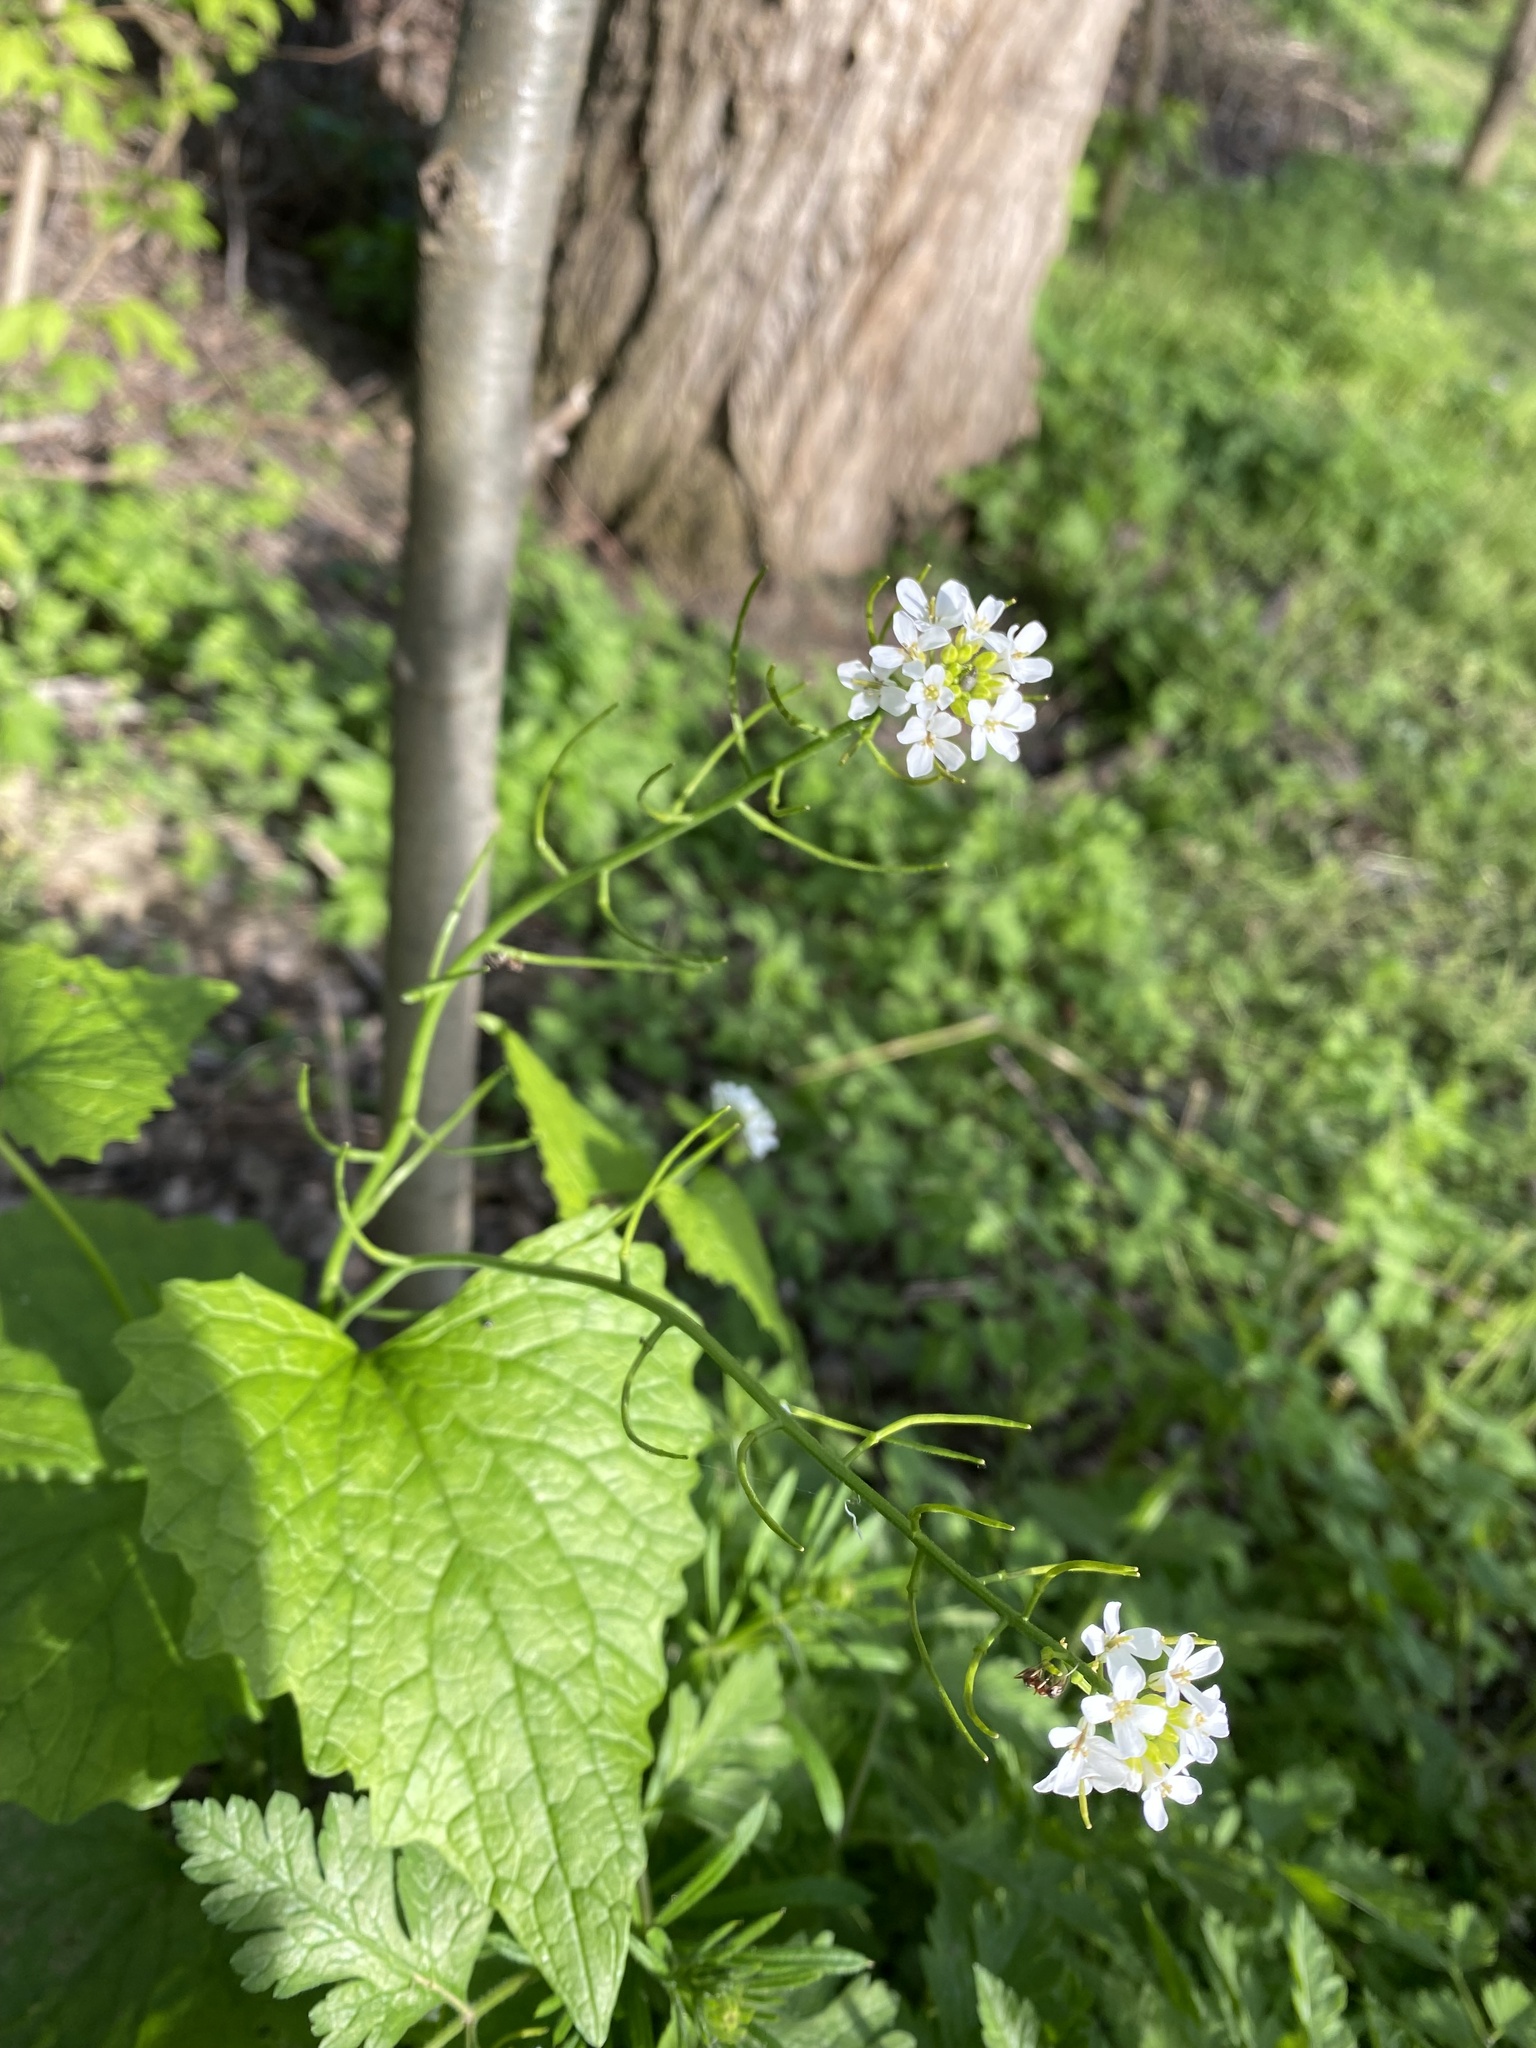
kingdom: Plantae
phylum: Tracheophyta
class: Magnoliopsida
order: Brassicales
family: Brassicaceae
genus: Alliaria
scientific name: Alliaria petiolata
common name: Garlic mustard
